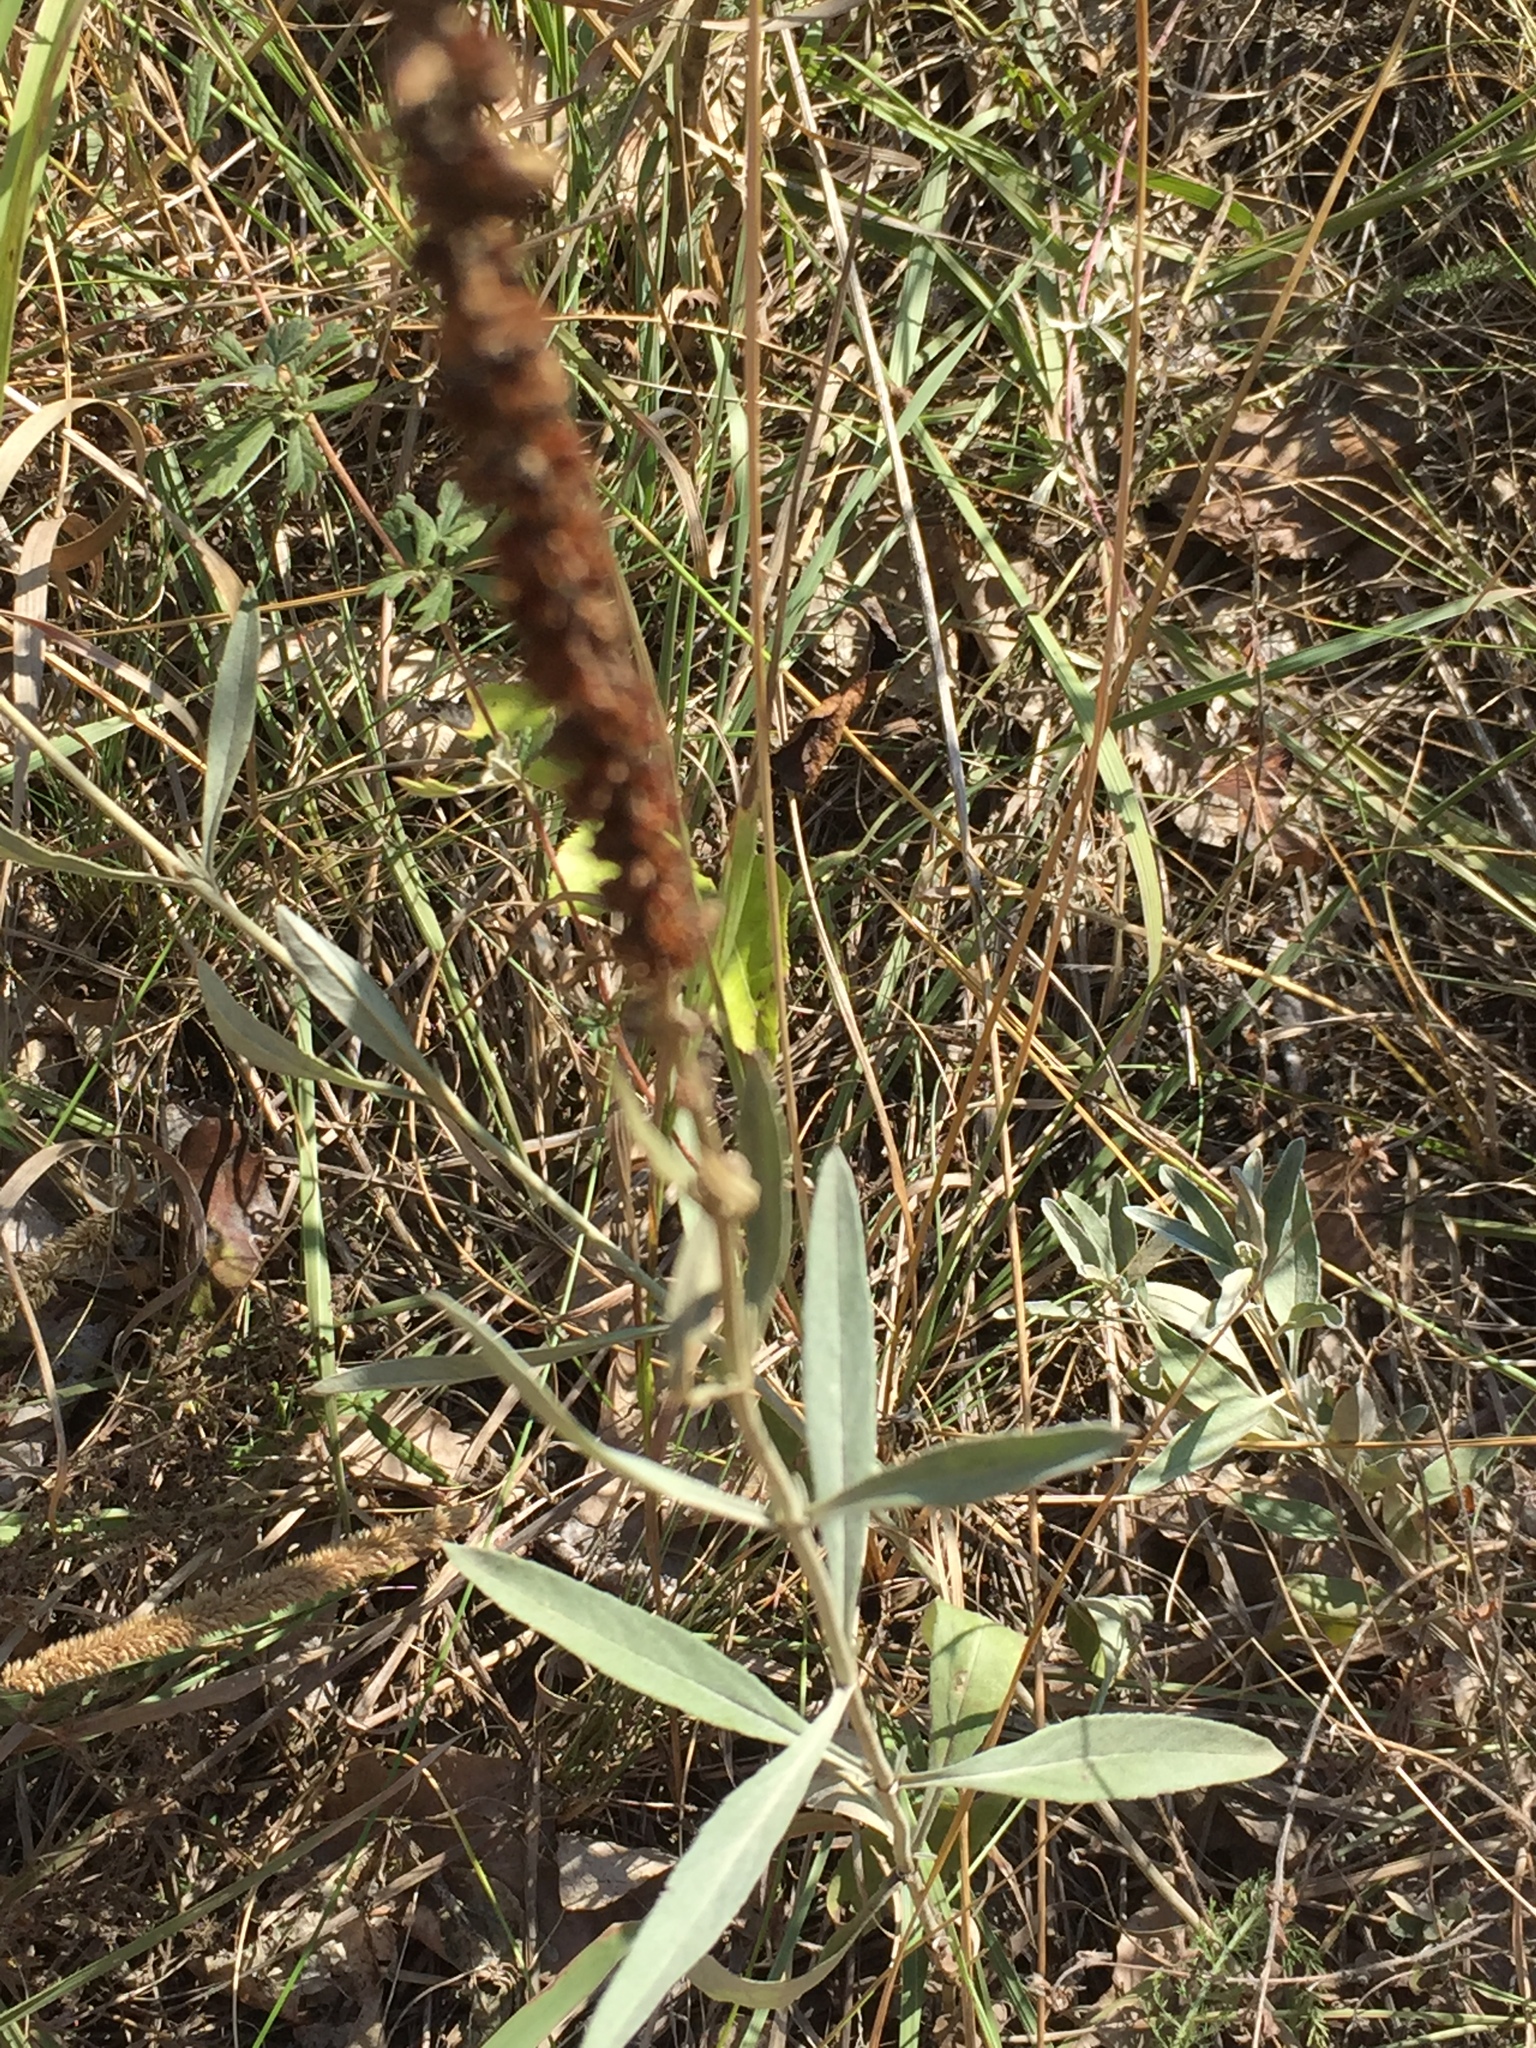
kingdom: Plantae
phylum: Tracheophyta
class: Magnoliopsida
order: Lamiales
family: Plantaginaceae
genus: Veronica
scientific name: Veronica incana
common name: Silver speedwell
